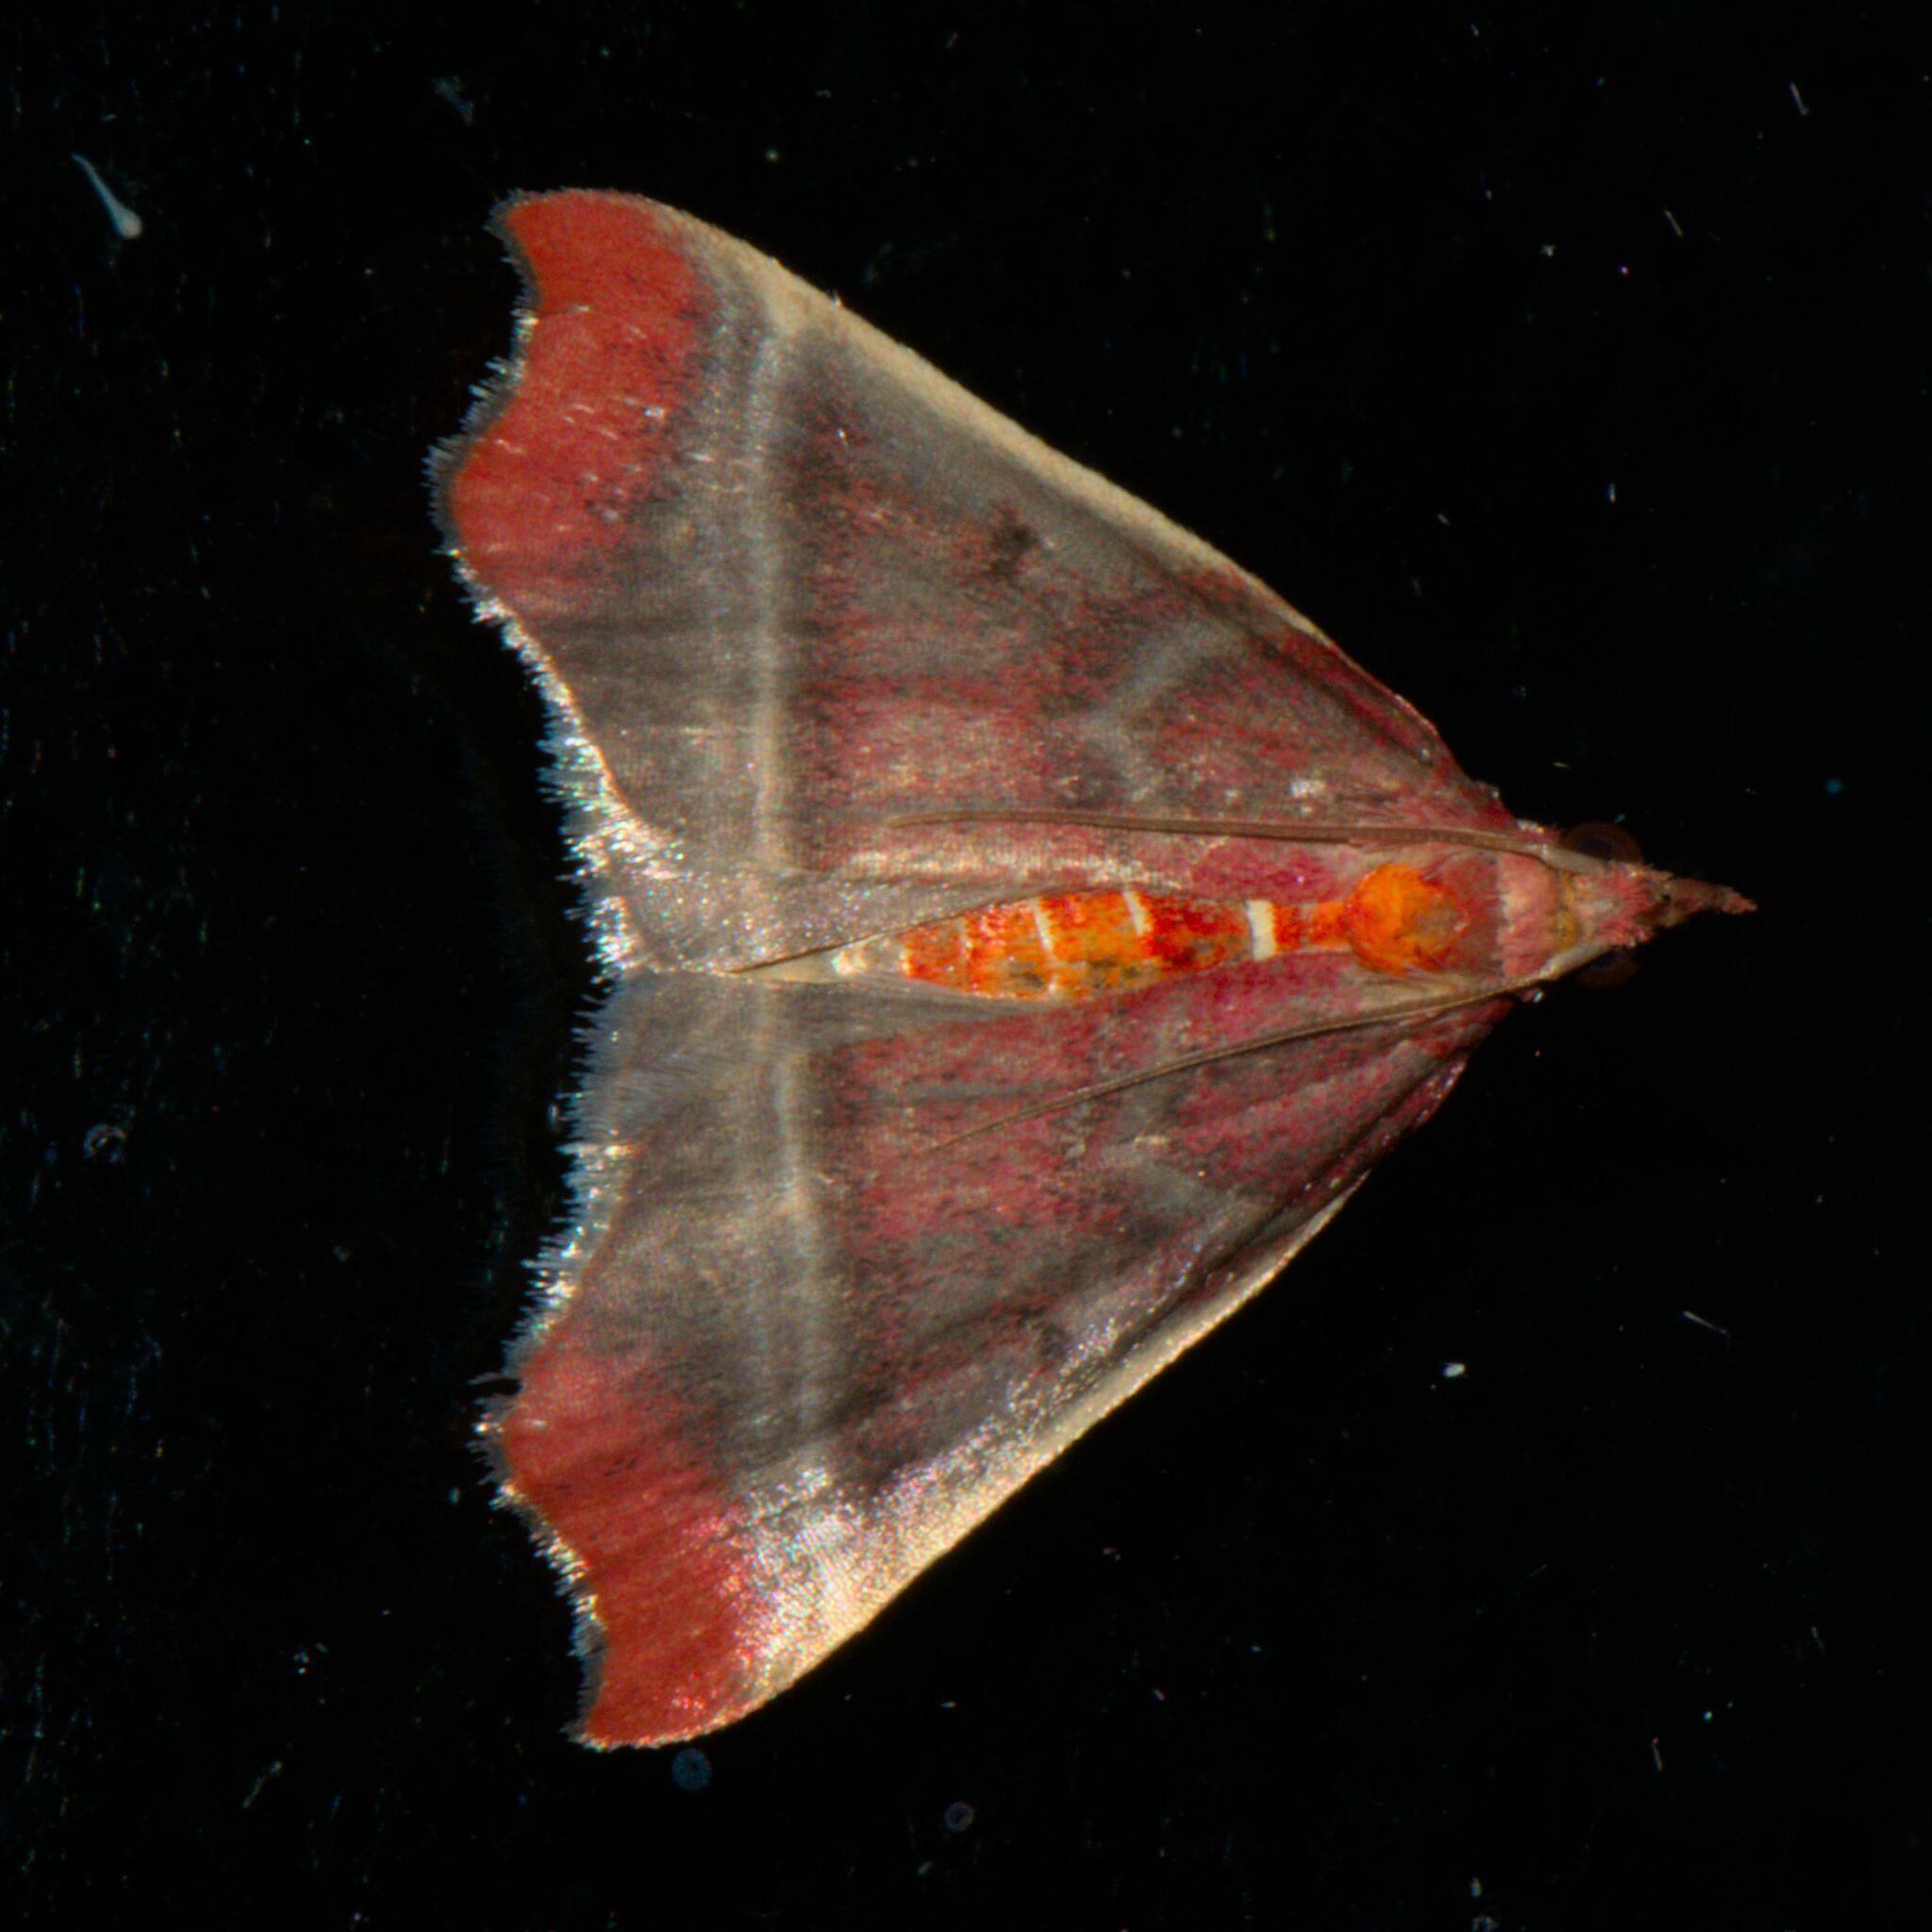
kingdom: Animalia
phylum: Arthropoda
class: Insecta
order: Lepidoptera
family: Crambidae
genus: Rodaba
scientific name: Rodaba angulipennis
